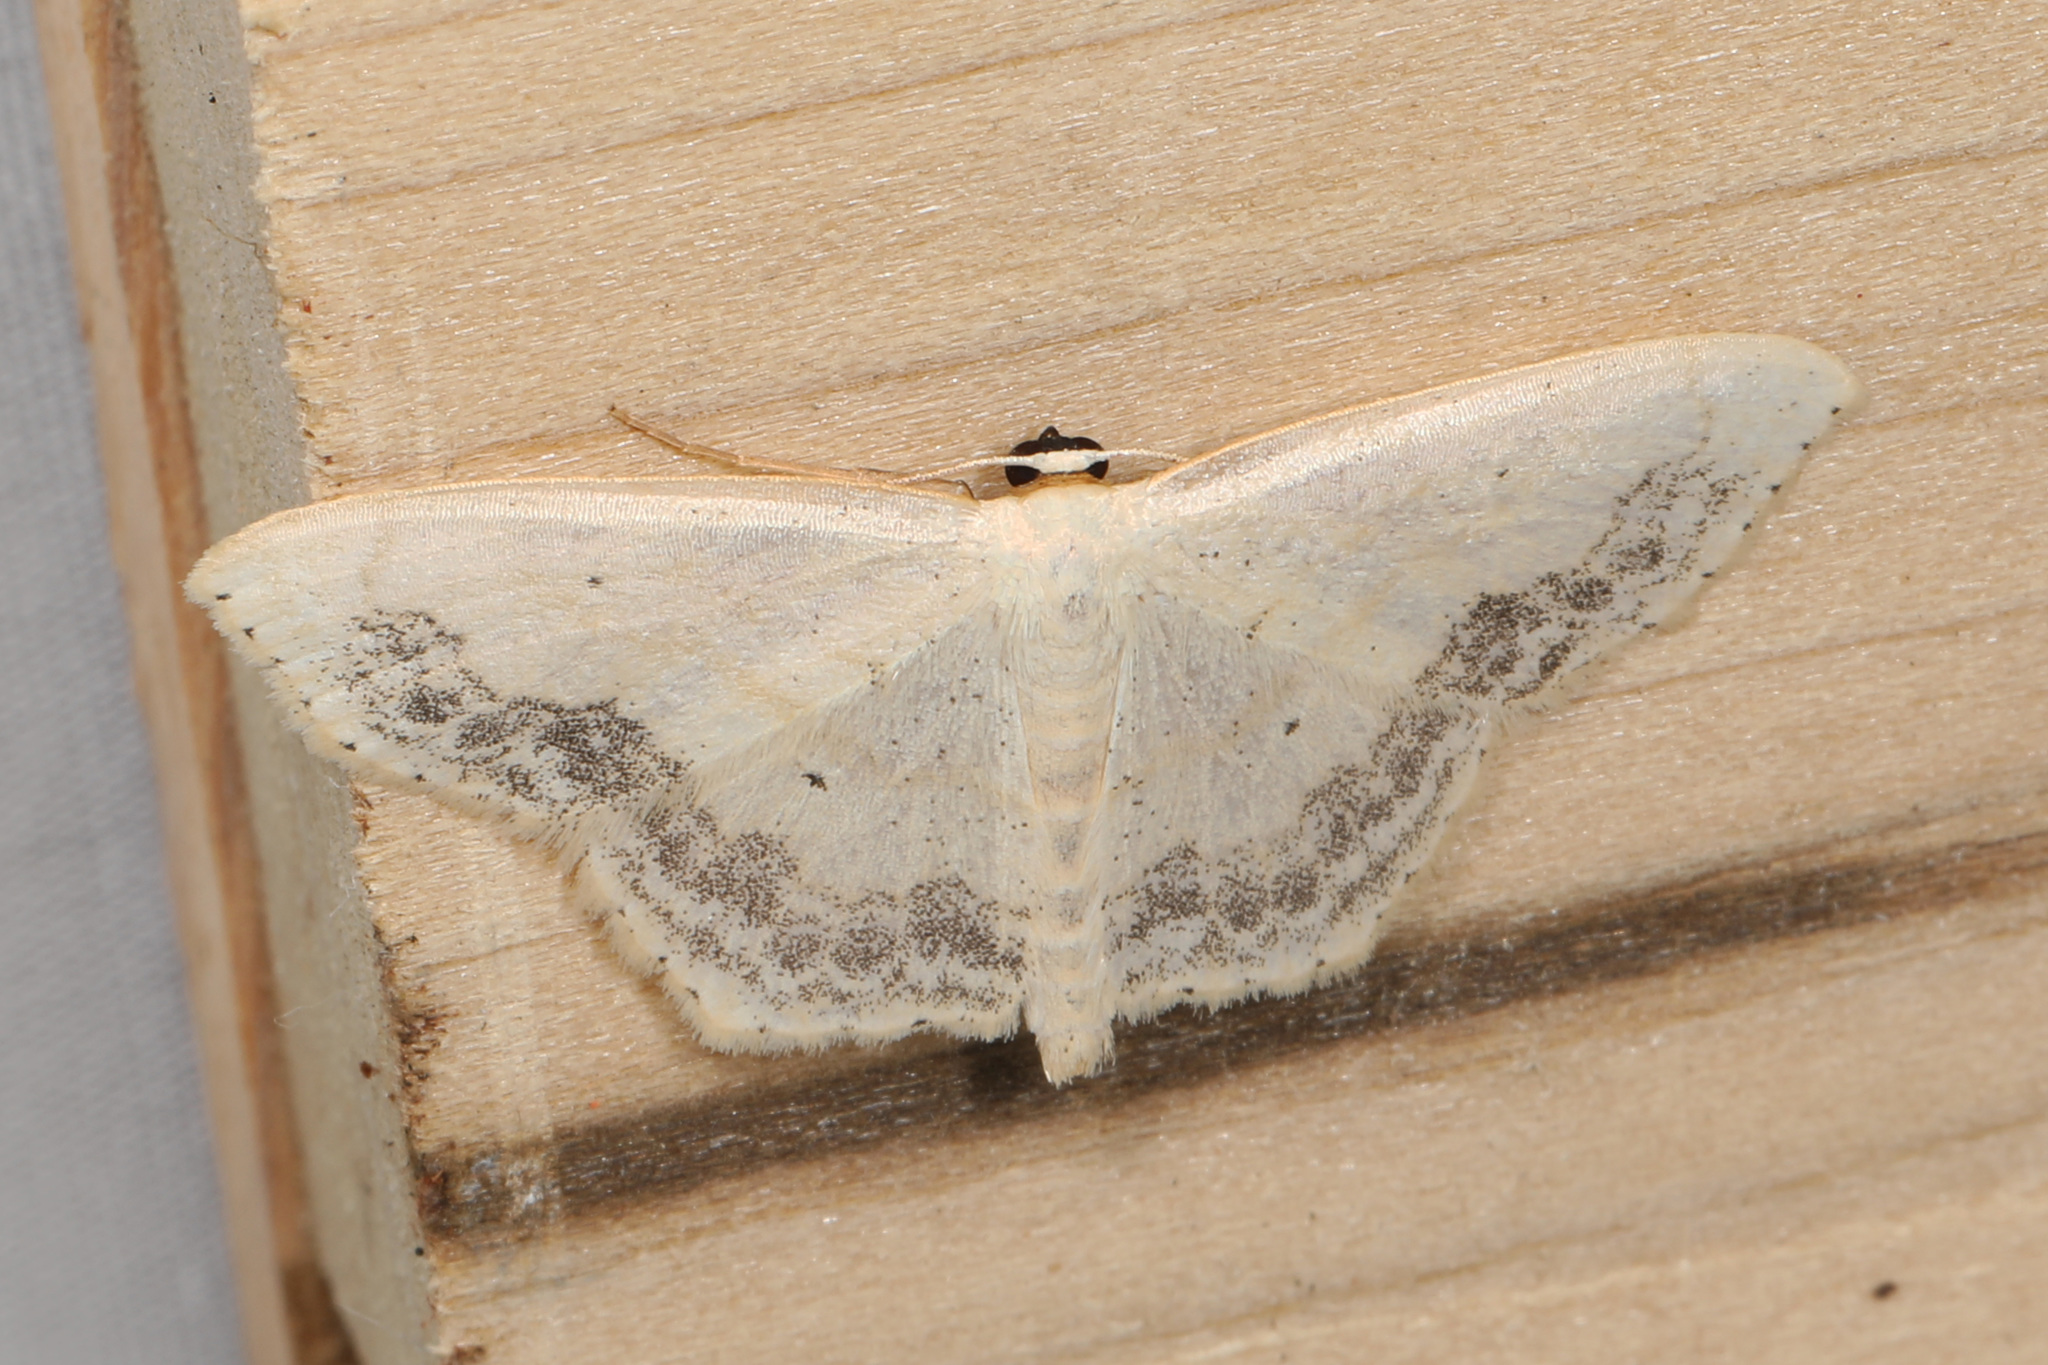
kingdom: Animalia
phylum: Arthropoda
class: Insecta
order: Lepidoptera
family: Geometridae
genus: Scopula
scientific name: Scopula limboundata
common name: Large lace border
